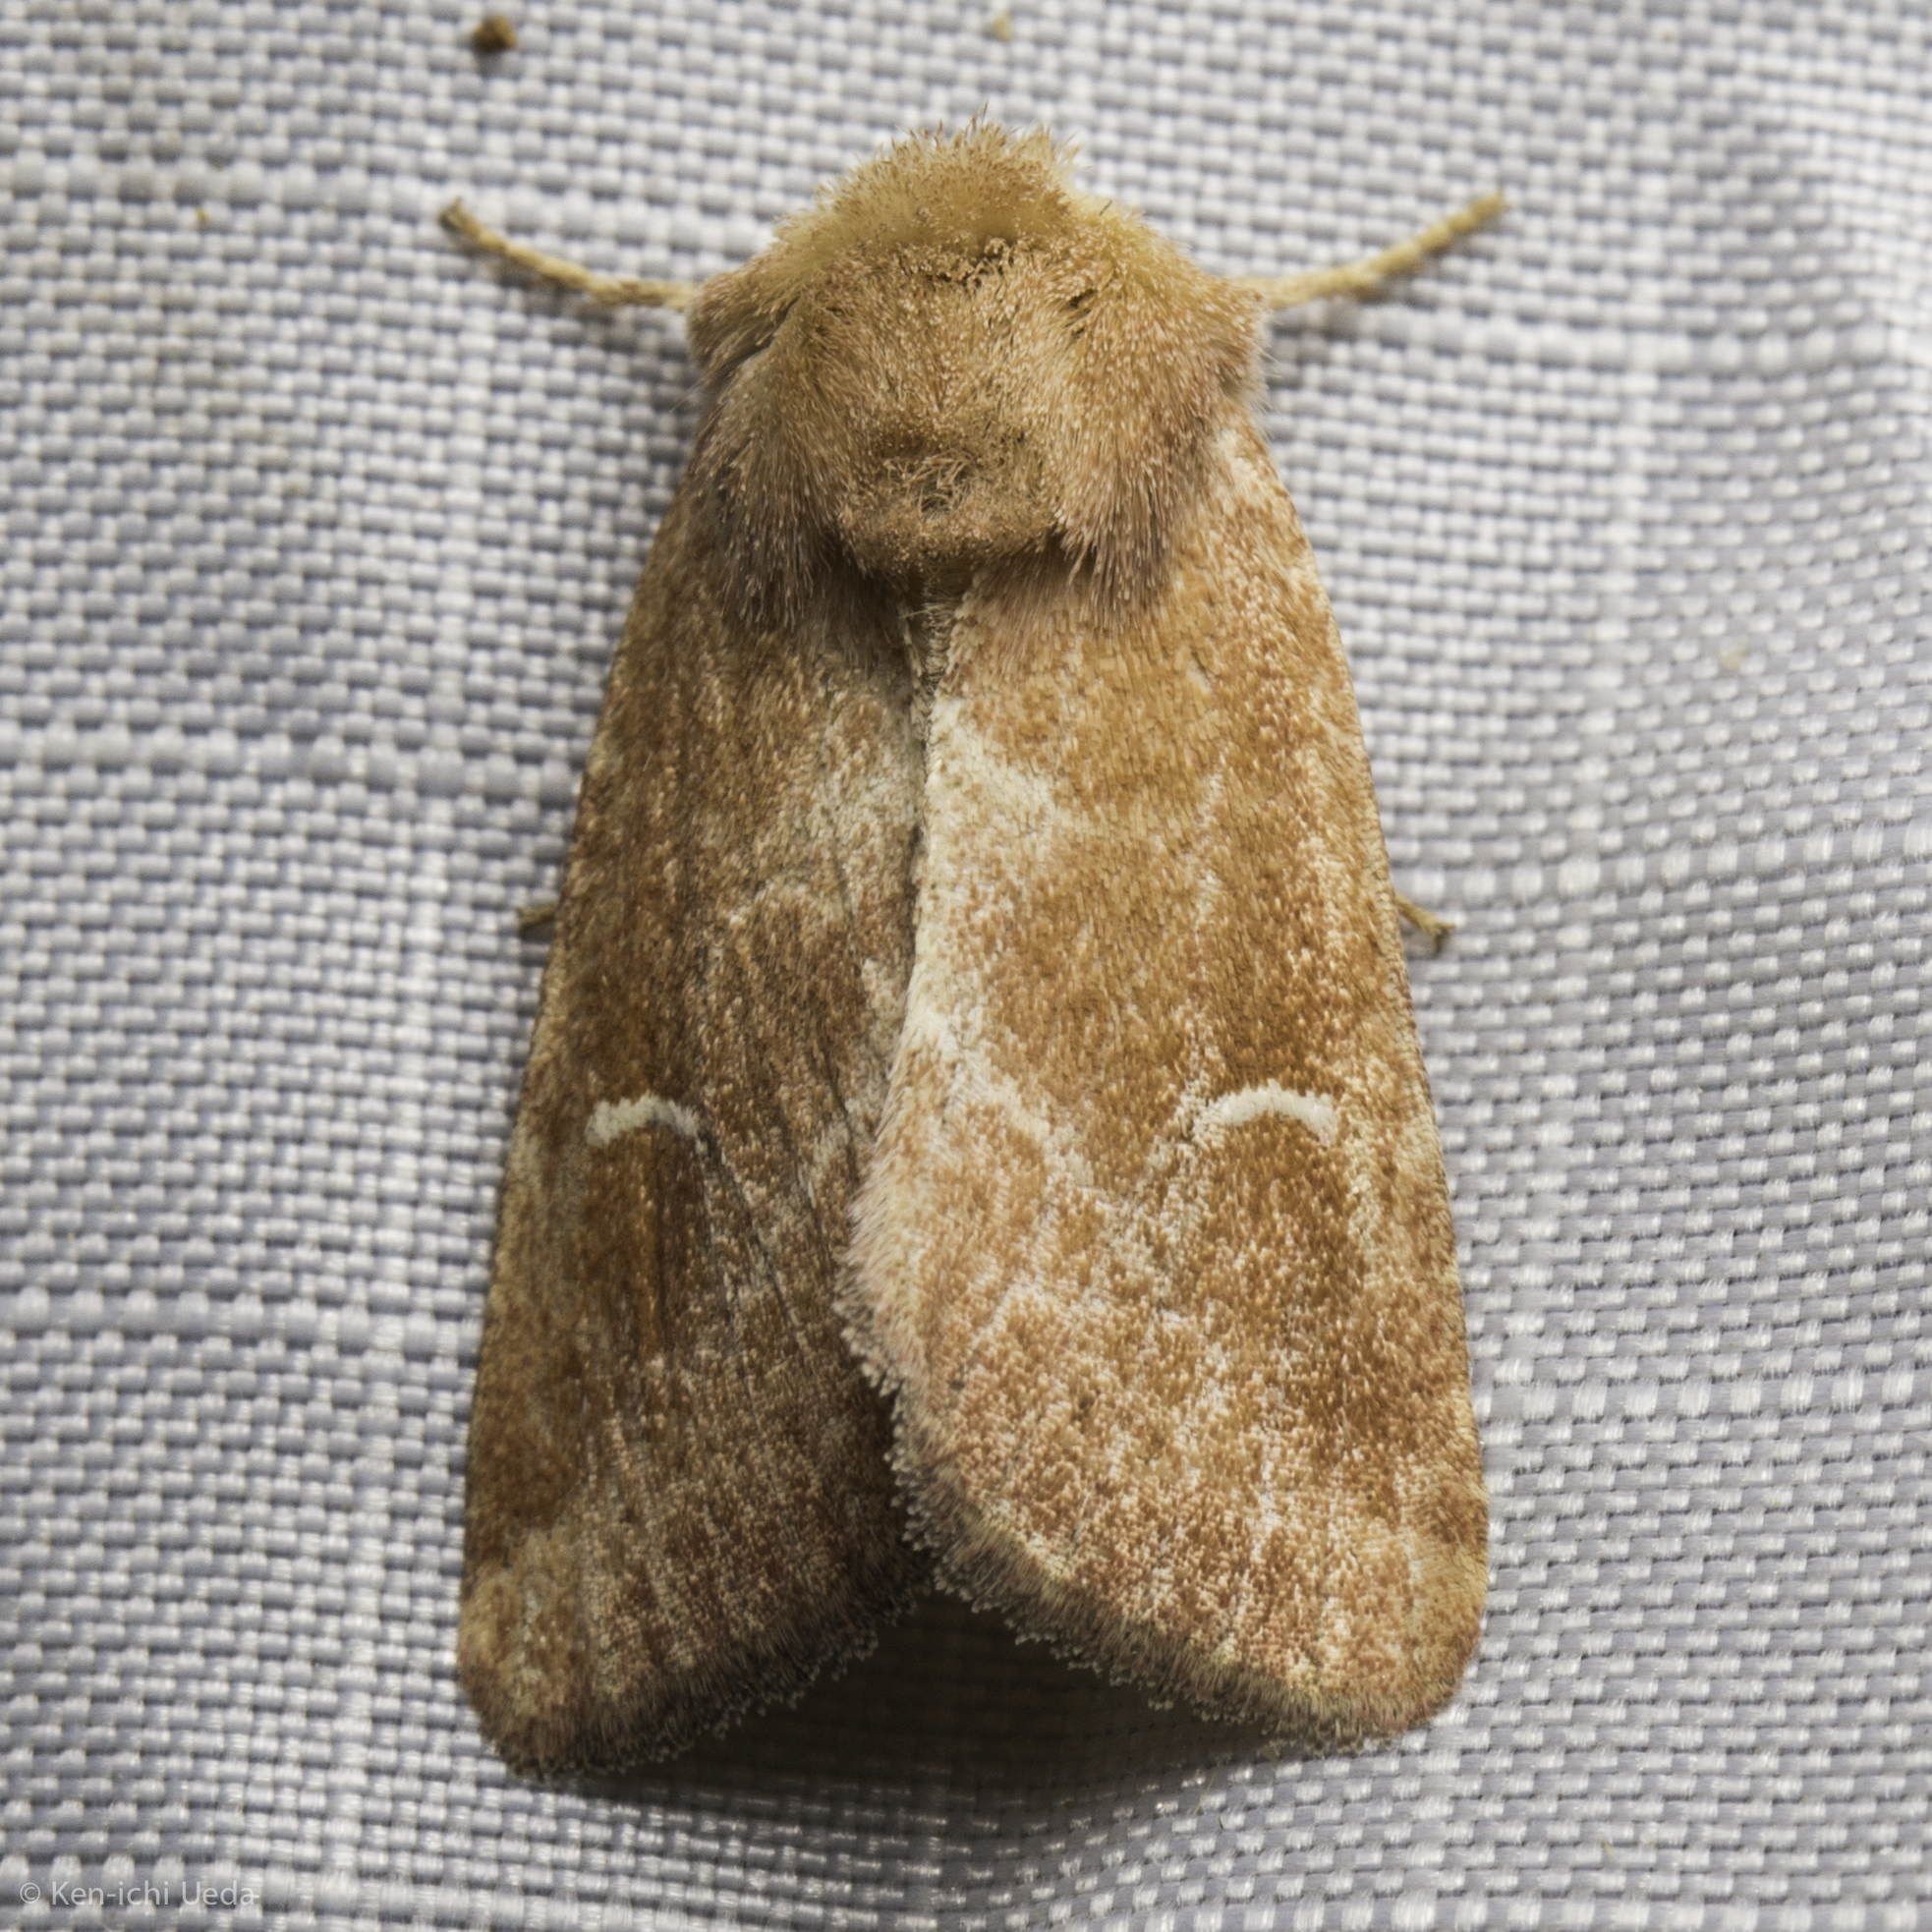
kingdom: Animalia
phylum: Arthropoda
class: Insecta
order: Lepidoptera
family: Noctuidae
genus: Eriopyga
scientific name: Eriopyga lunata
